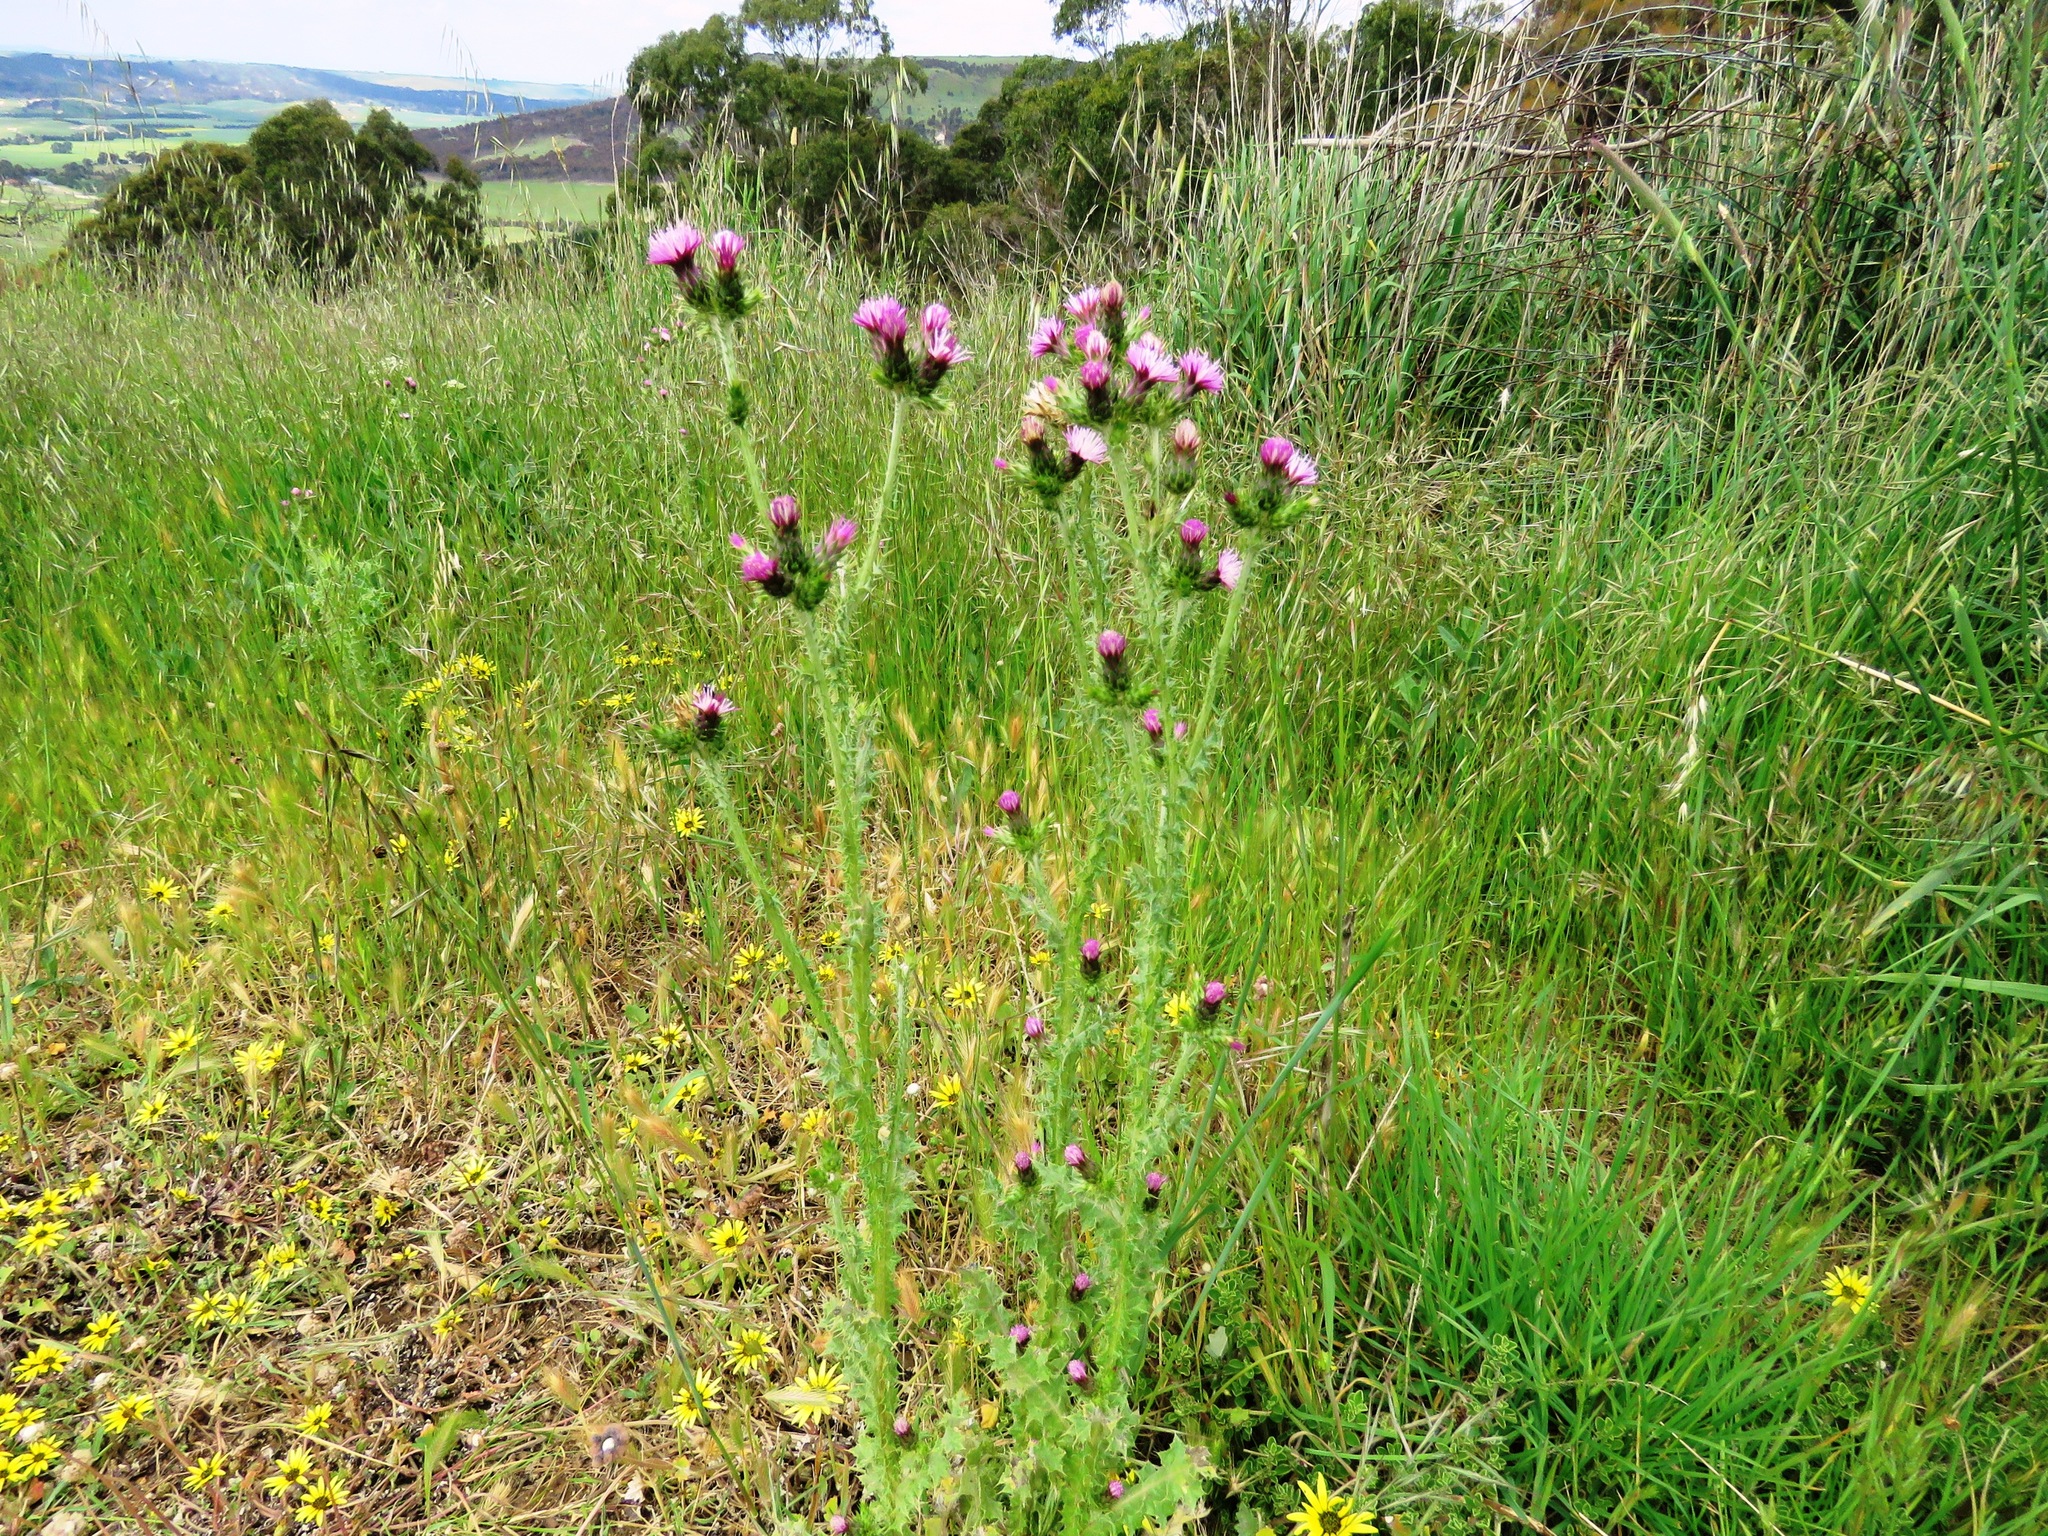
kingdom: Plantae
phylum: Tracheophyta
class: Magnoliopsida
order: Asterales
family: Asteraceae
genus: Carduus
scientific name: Carduus tenuiflorus
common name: Slender thistle
